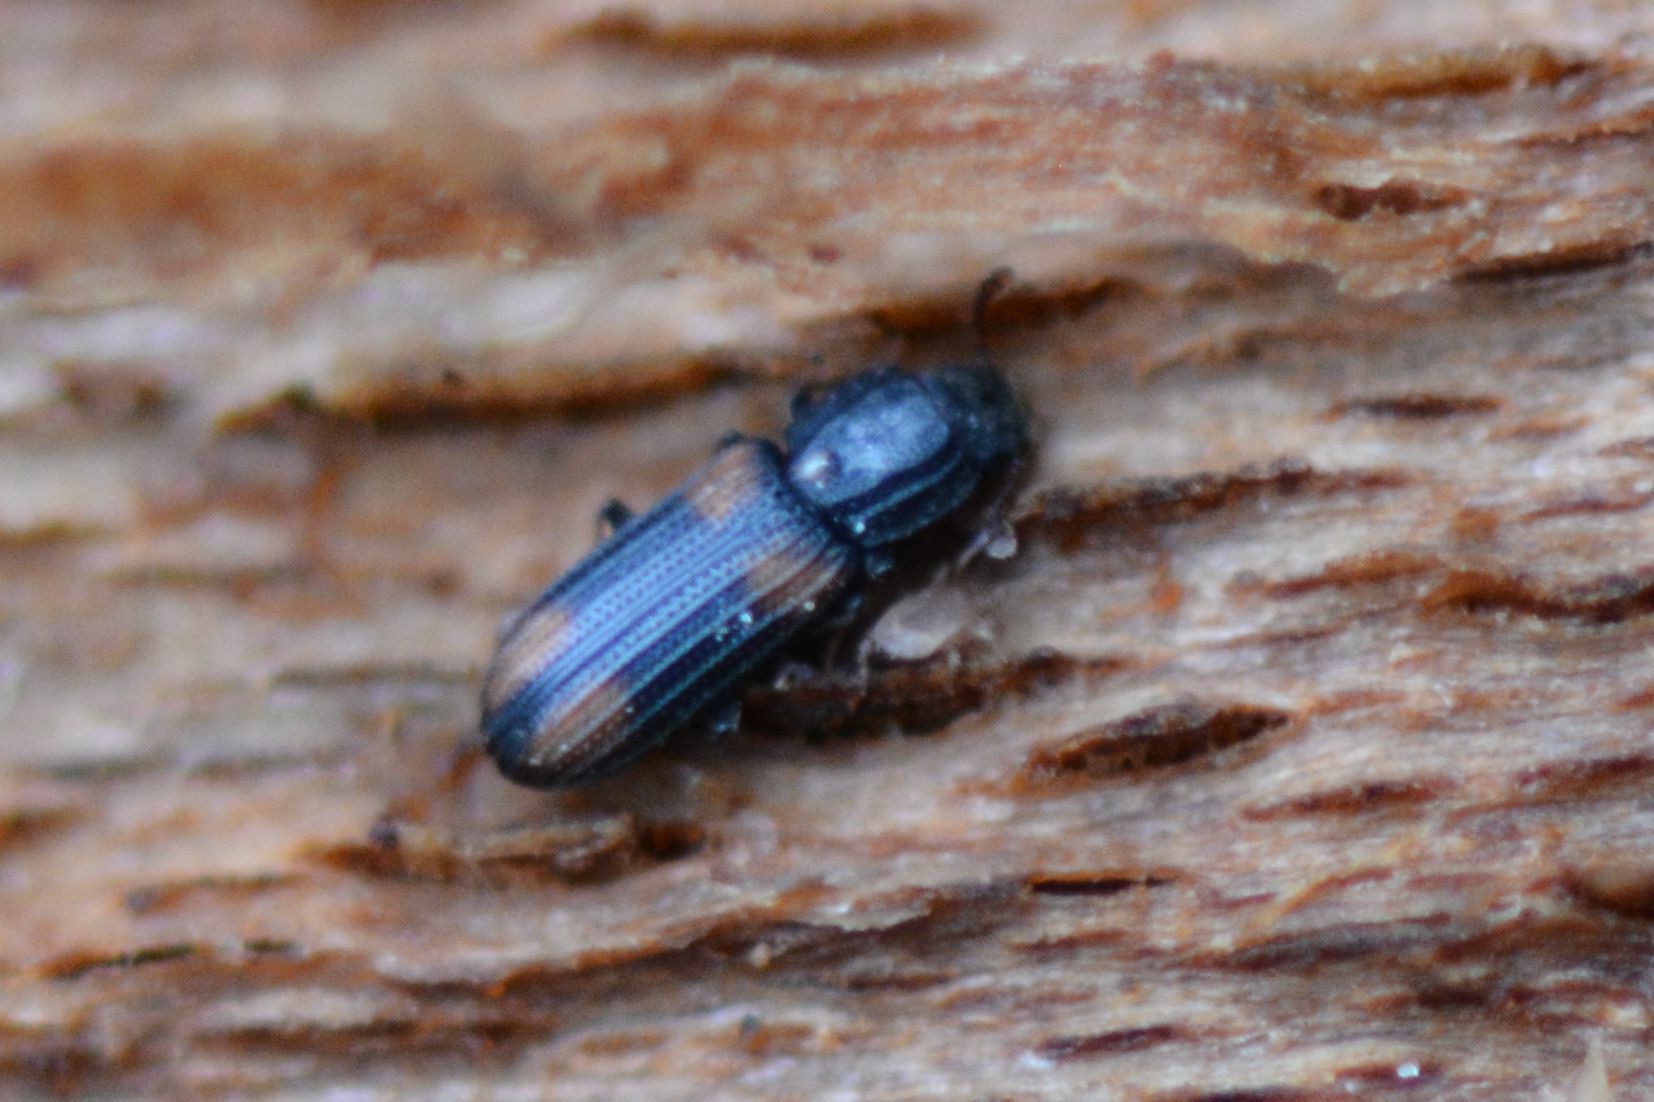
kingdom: Animalia
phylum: Arthropoda
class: Insecta
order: Coleoptera
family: Zopheridae
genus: Bitoma
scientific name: Bitoma crenata
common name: Bark beetle
